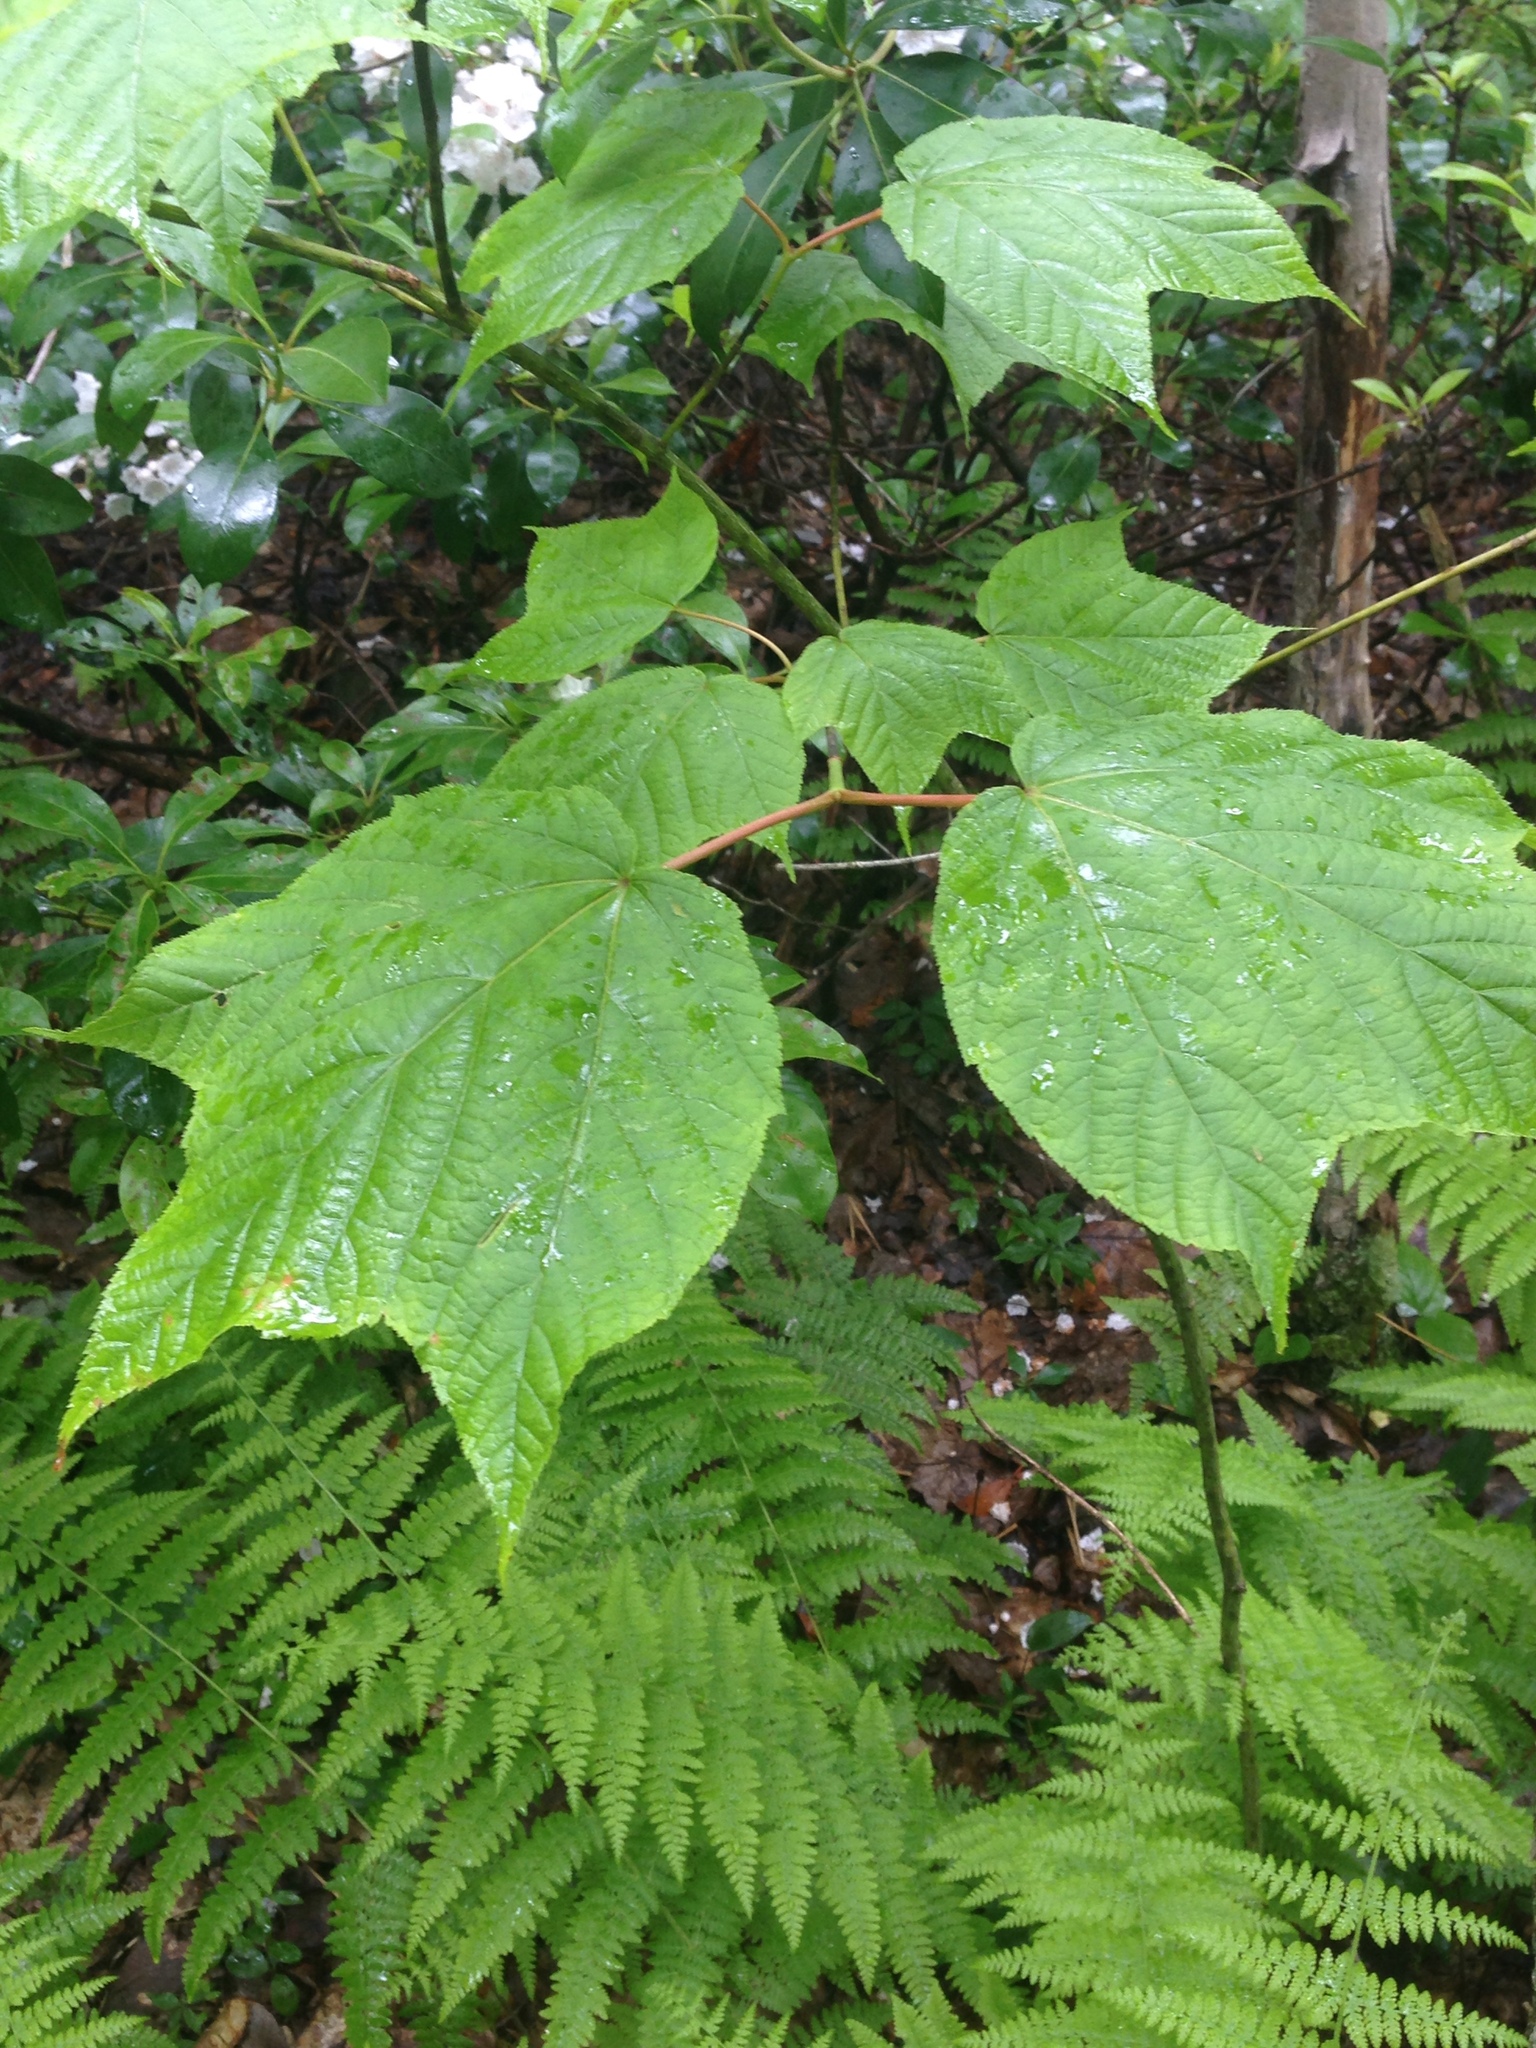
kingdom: Plantae
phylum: Tracheophyta
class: Magnoliopsida
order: Sapindales
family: Sapindaceae
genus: Acer
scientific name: Acer pensylvanicum
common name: Moosewood
